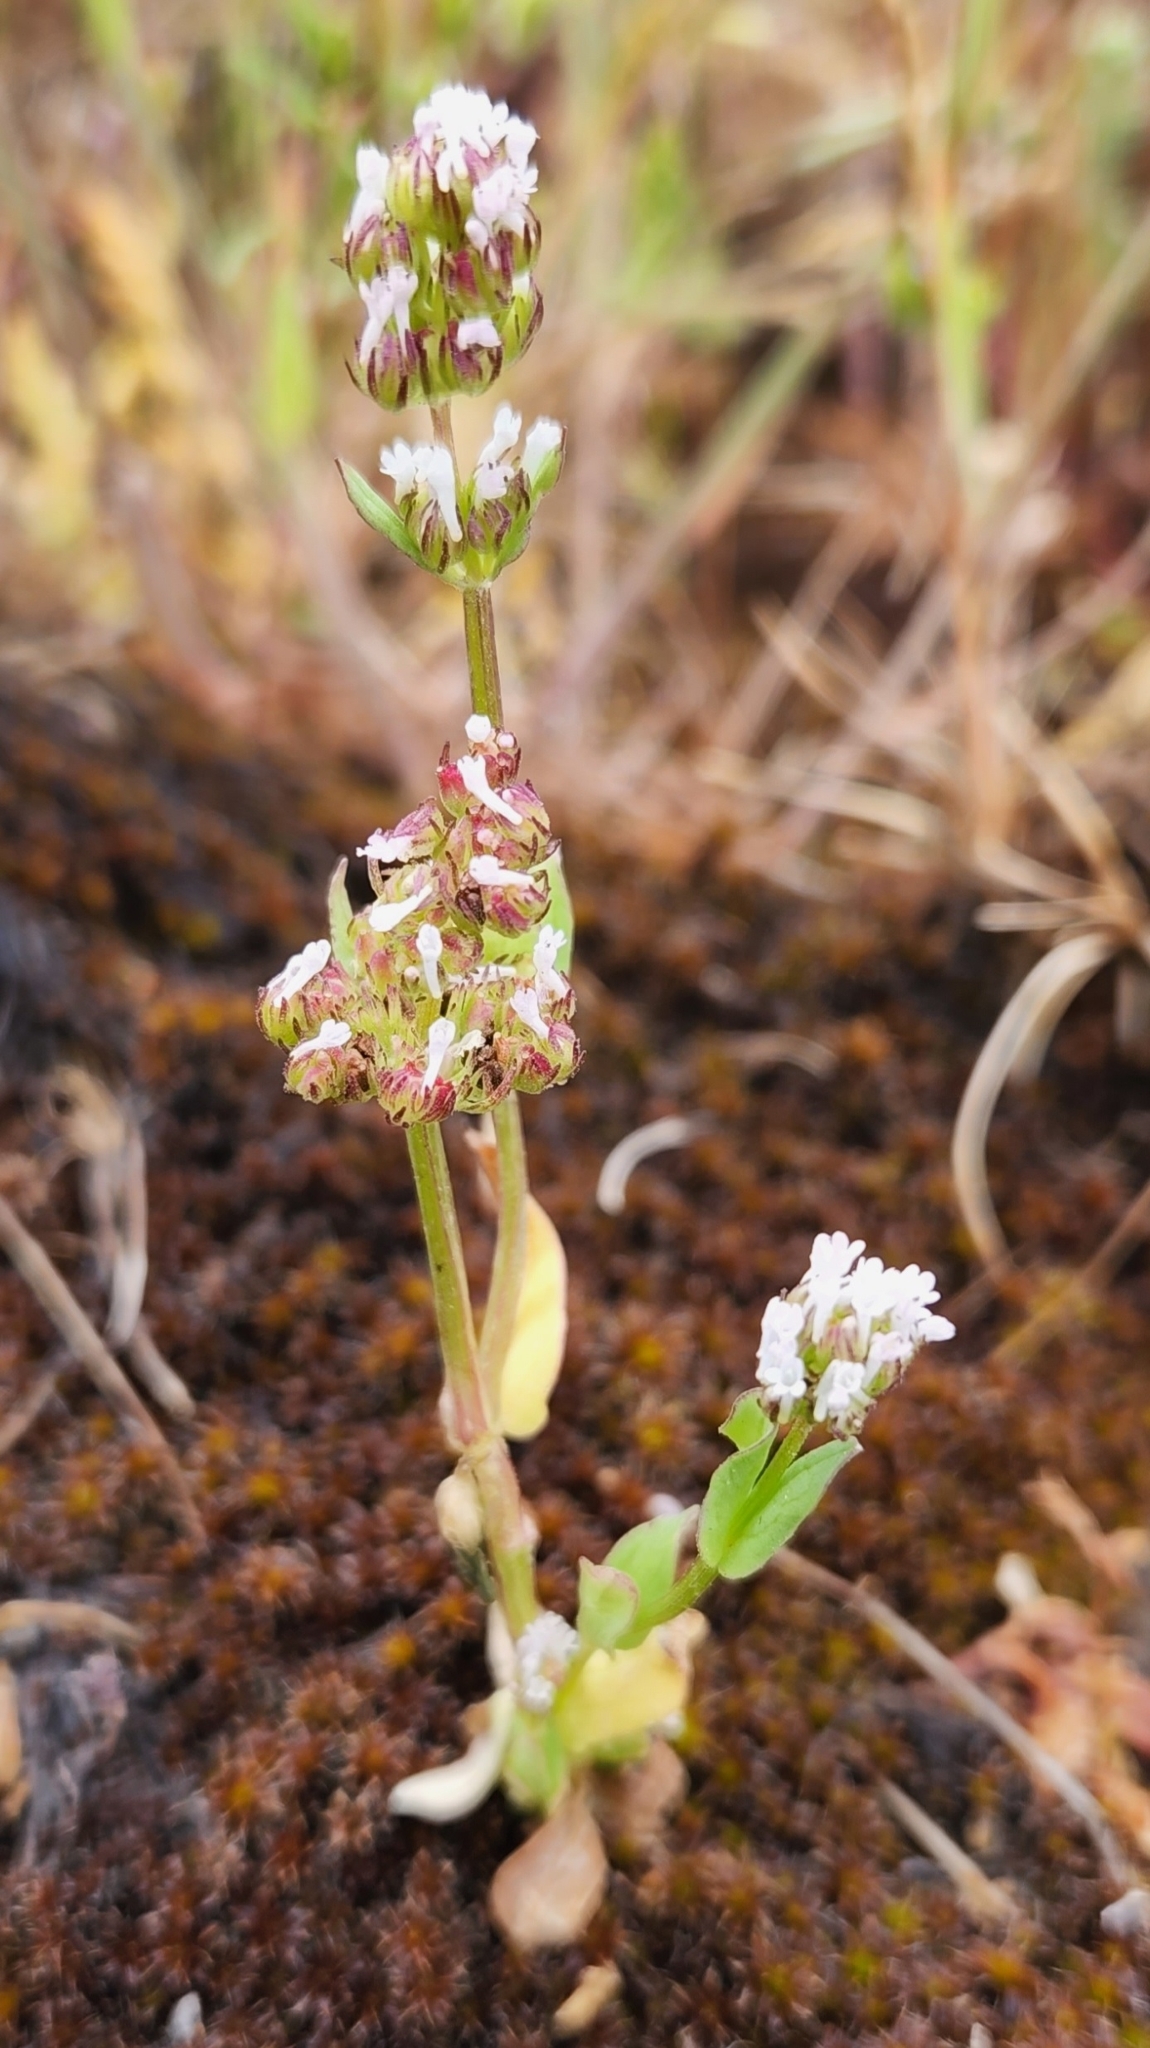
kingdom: Plantae
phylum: Tracheophyta
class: Magnoliopsida
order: Dipsacales
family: Caprifoliaceae
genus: Plectritis
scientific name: Plectritis macroptera
